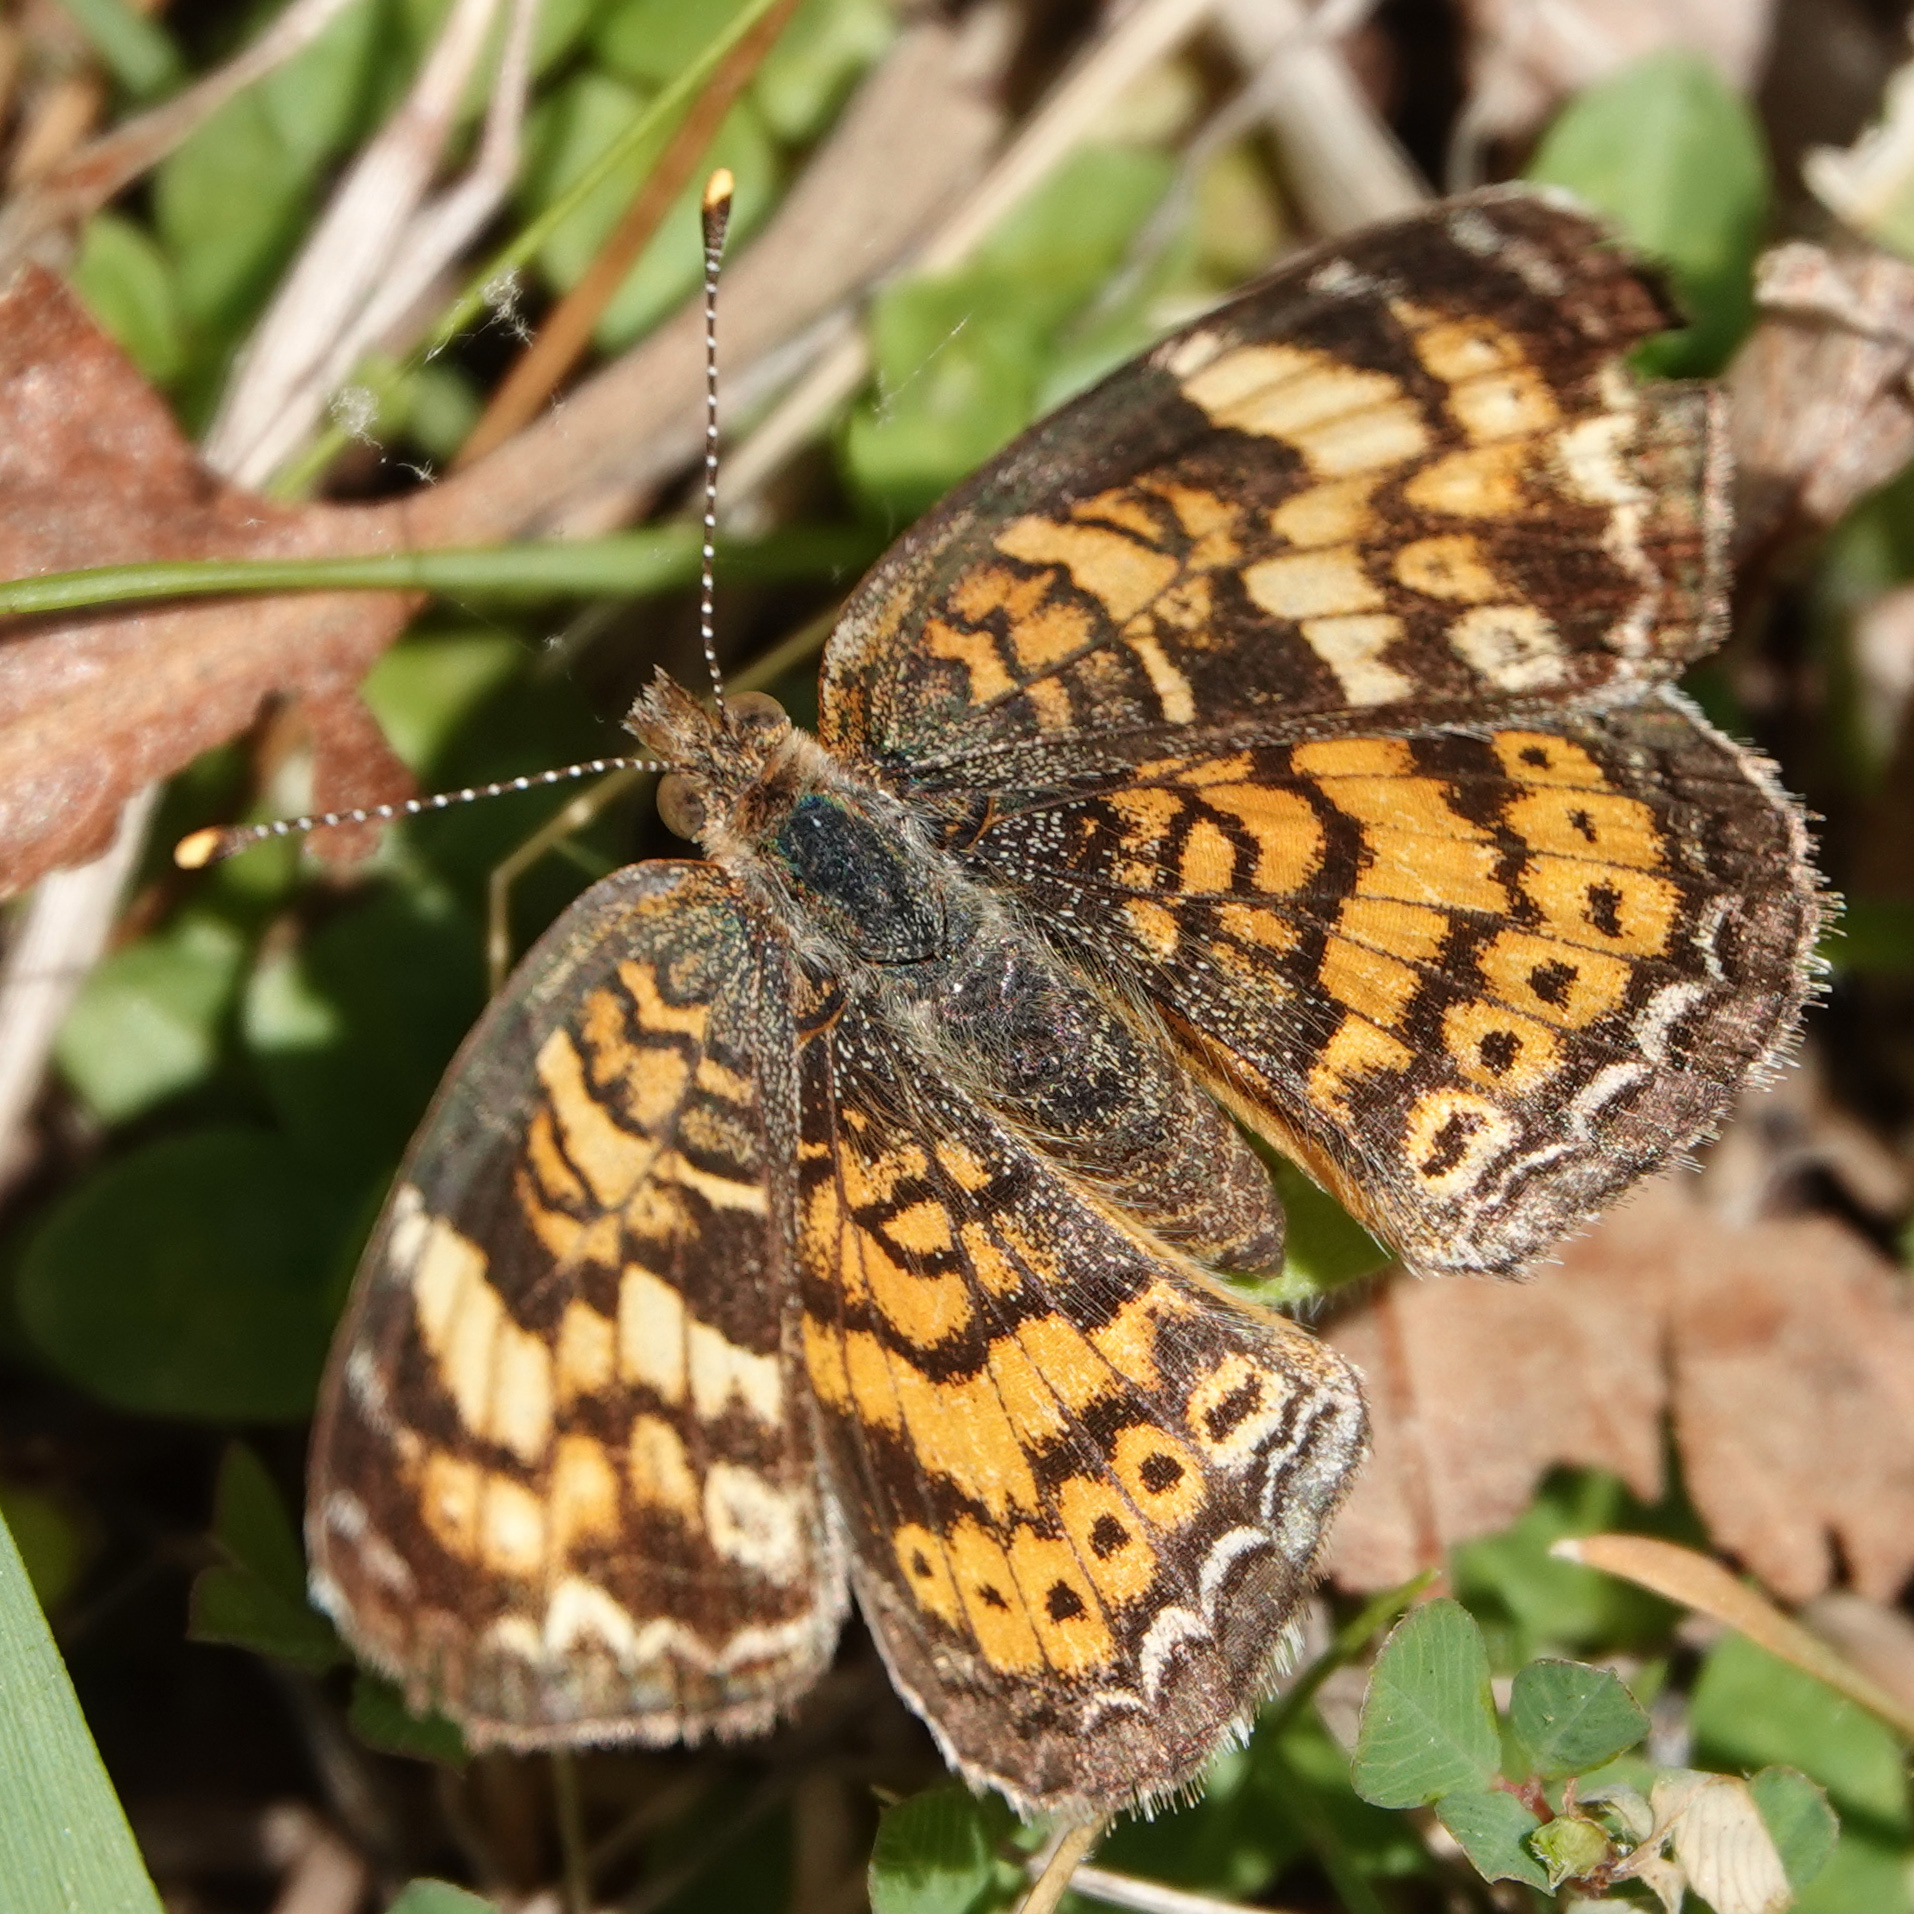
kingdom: Animalia
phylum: Arthropoda
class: Insecta
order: Lepidoptera
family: Nymphalidae
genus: Phyciodes
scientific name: Phyciodes tharos
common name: Pearl crescent
